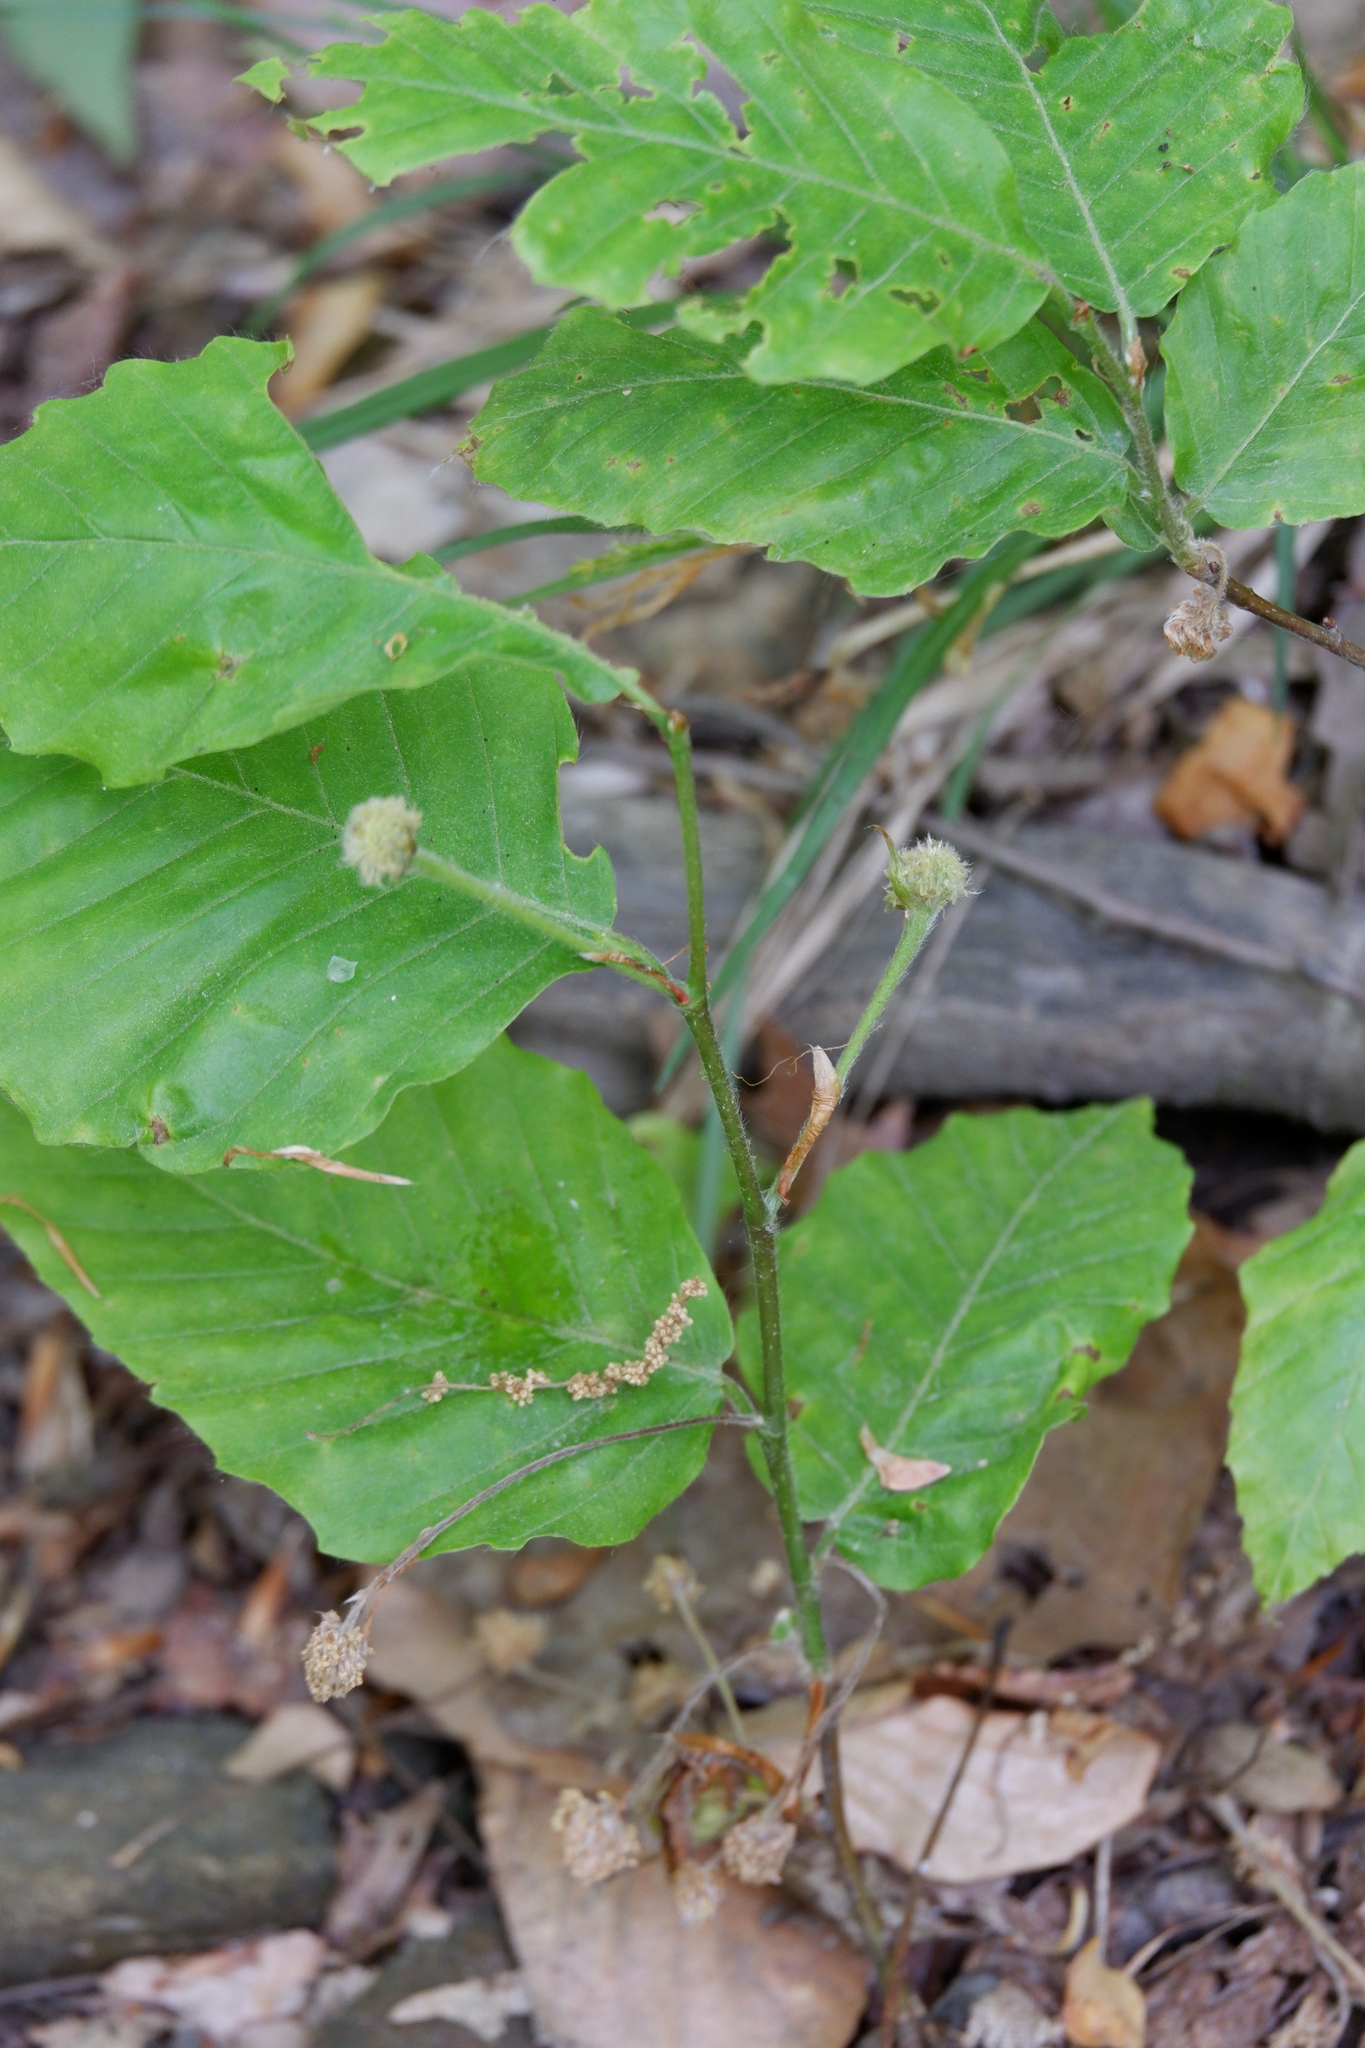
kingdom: Plantae
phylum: Tracheophyta
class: Magnoliopsida
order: Fagales
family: Fagaceae
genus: Fagus
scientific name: Fagus grandifolia
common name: American beech
